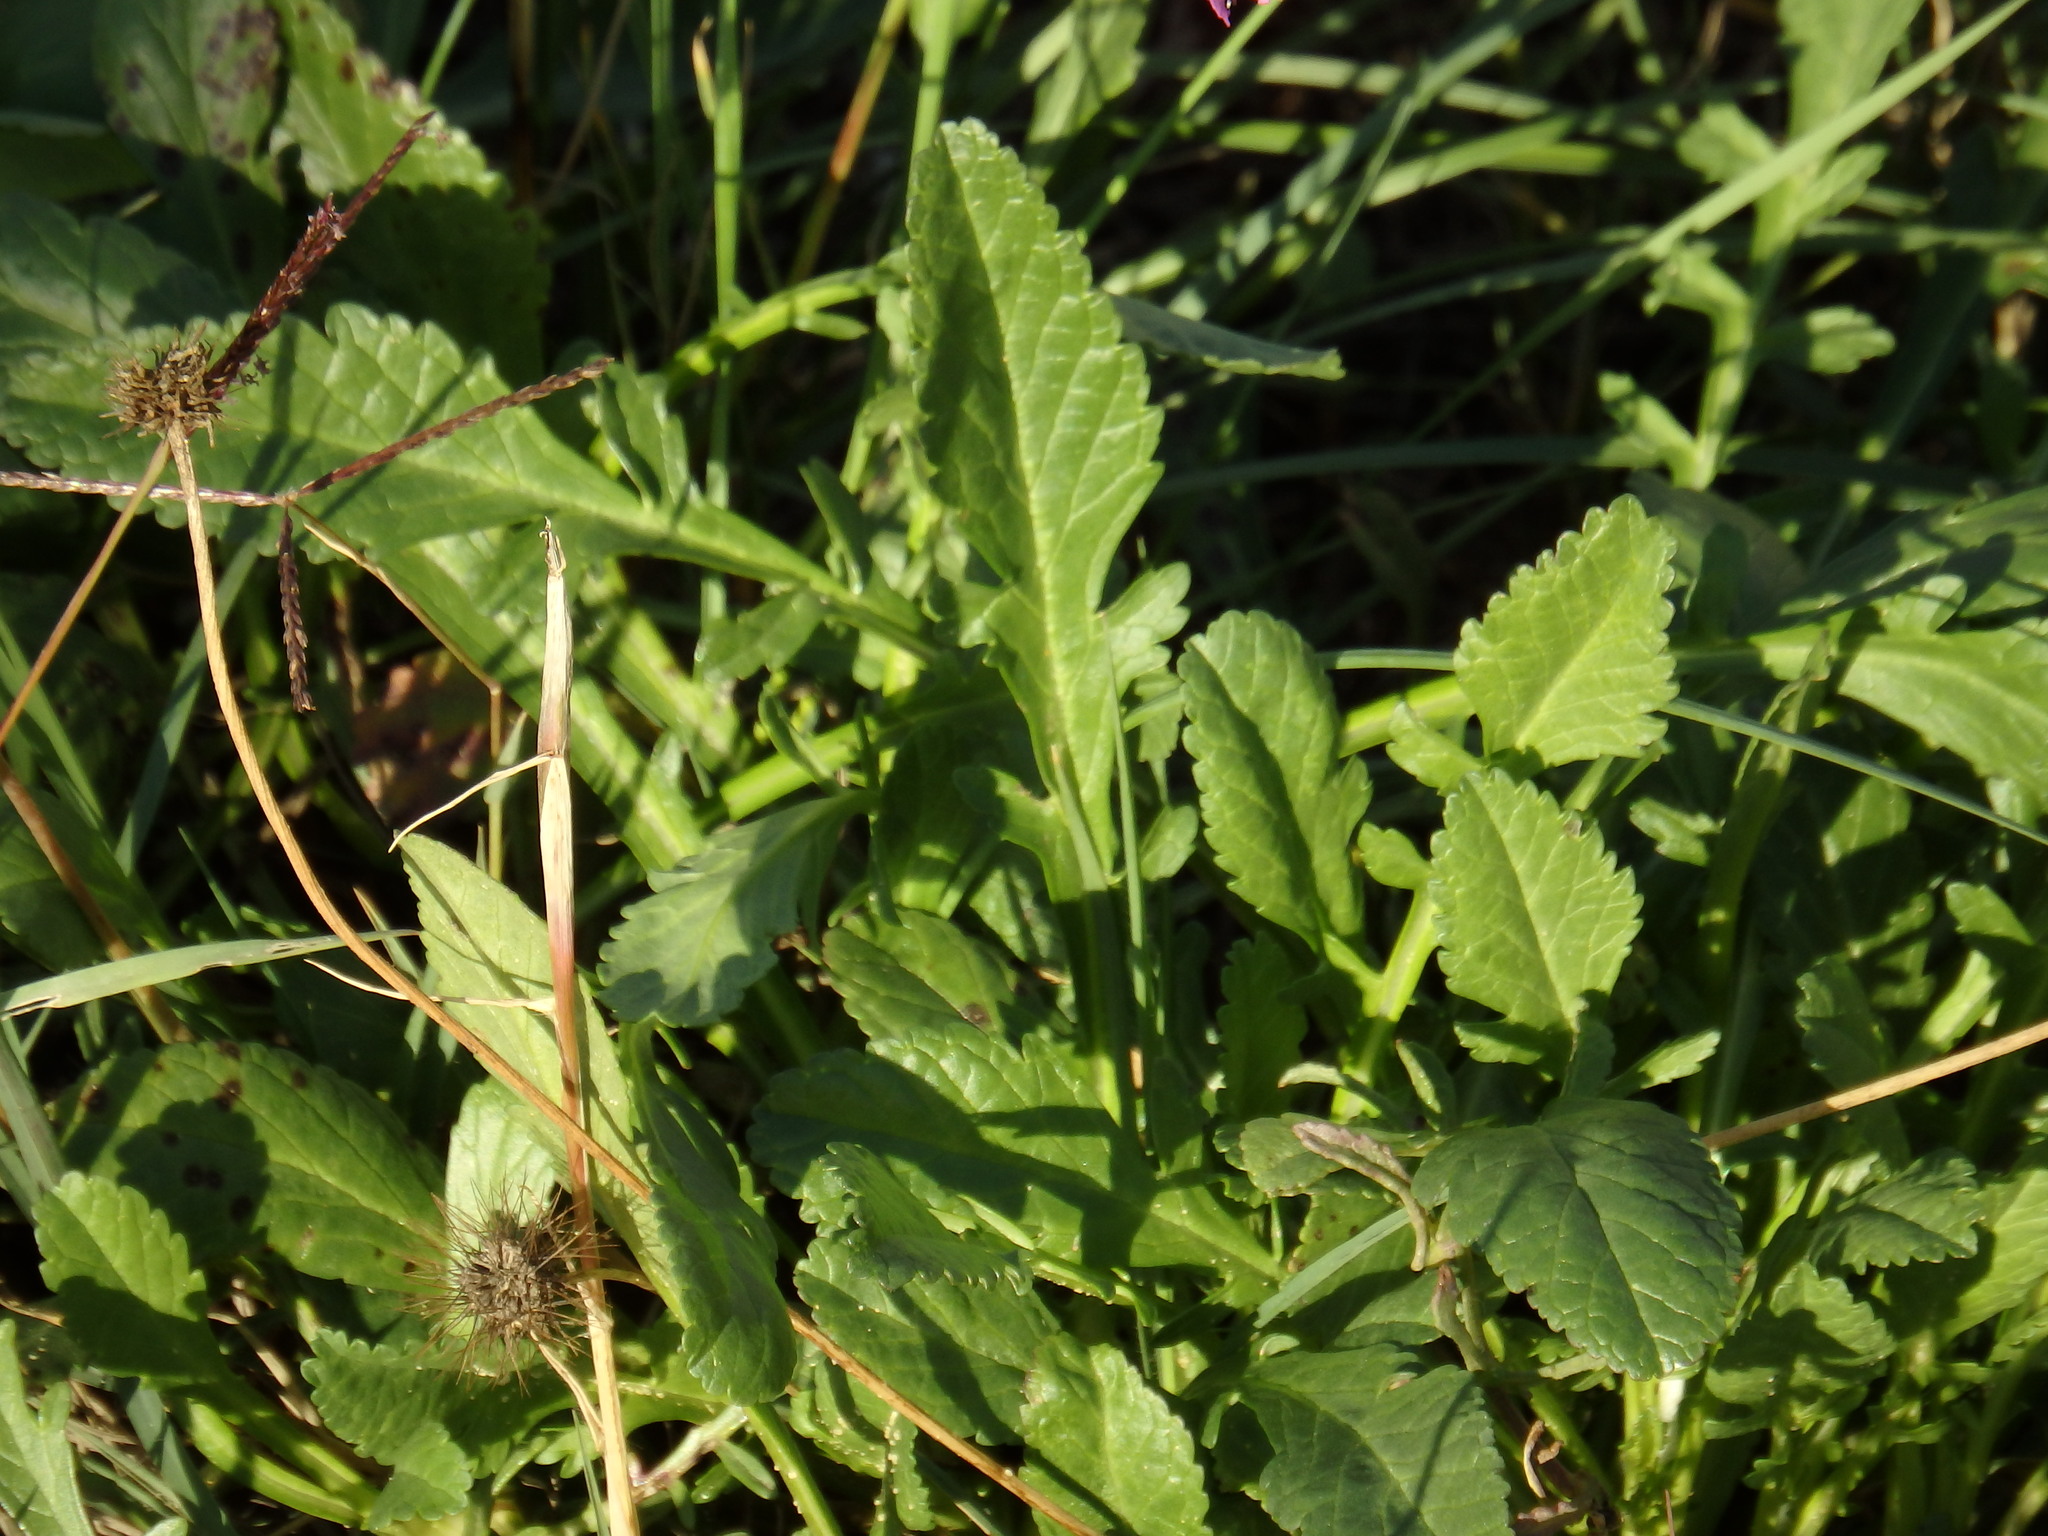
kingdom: Plantae
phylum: Tracheophyta
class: Magnoliopsida
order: Dipsacales
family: Caprifoliaceae
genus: Sixalix
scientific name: Sixalix atropurpurea
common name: Sweet scabious
